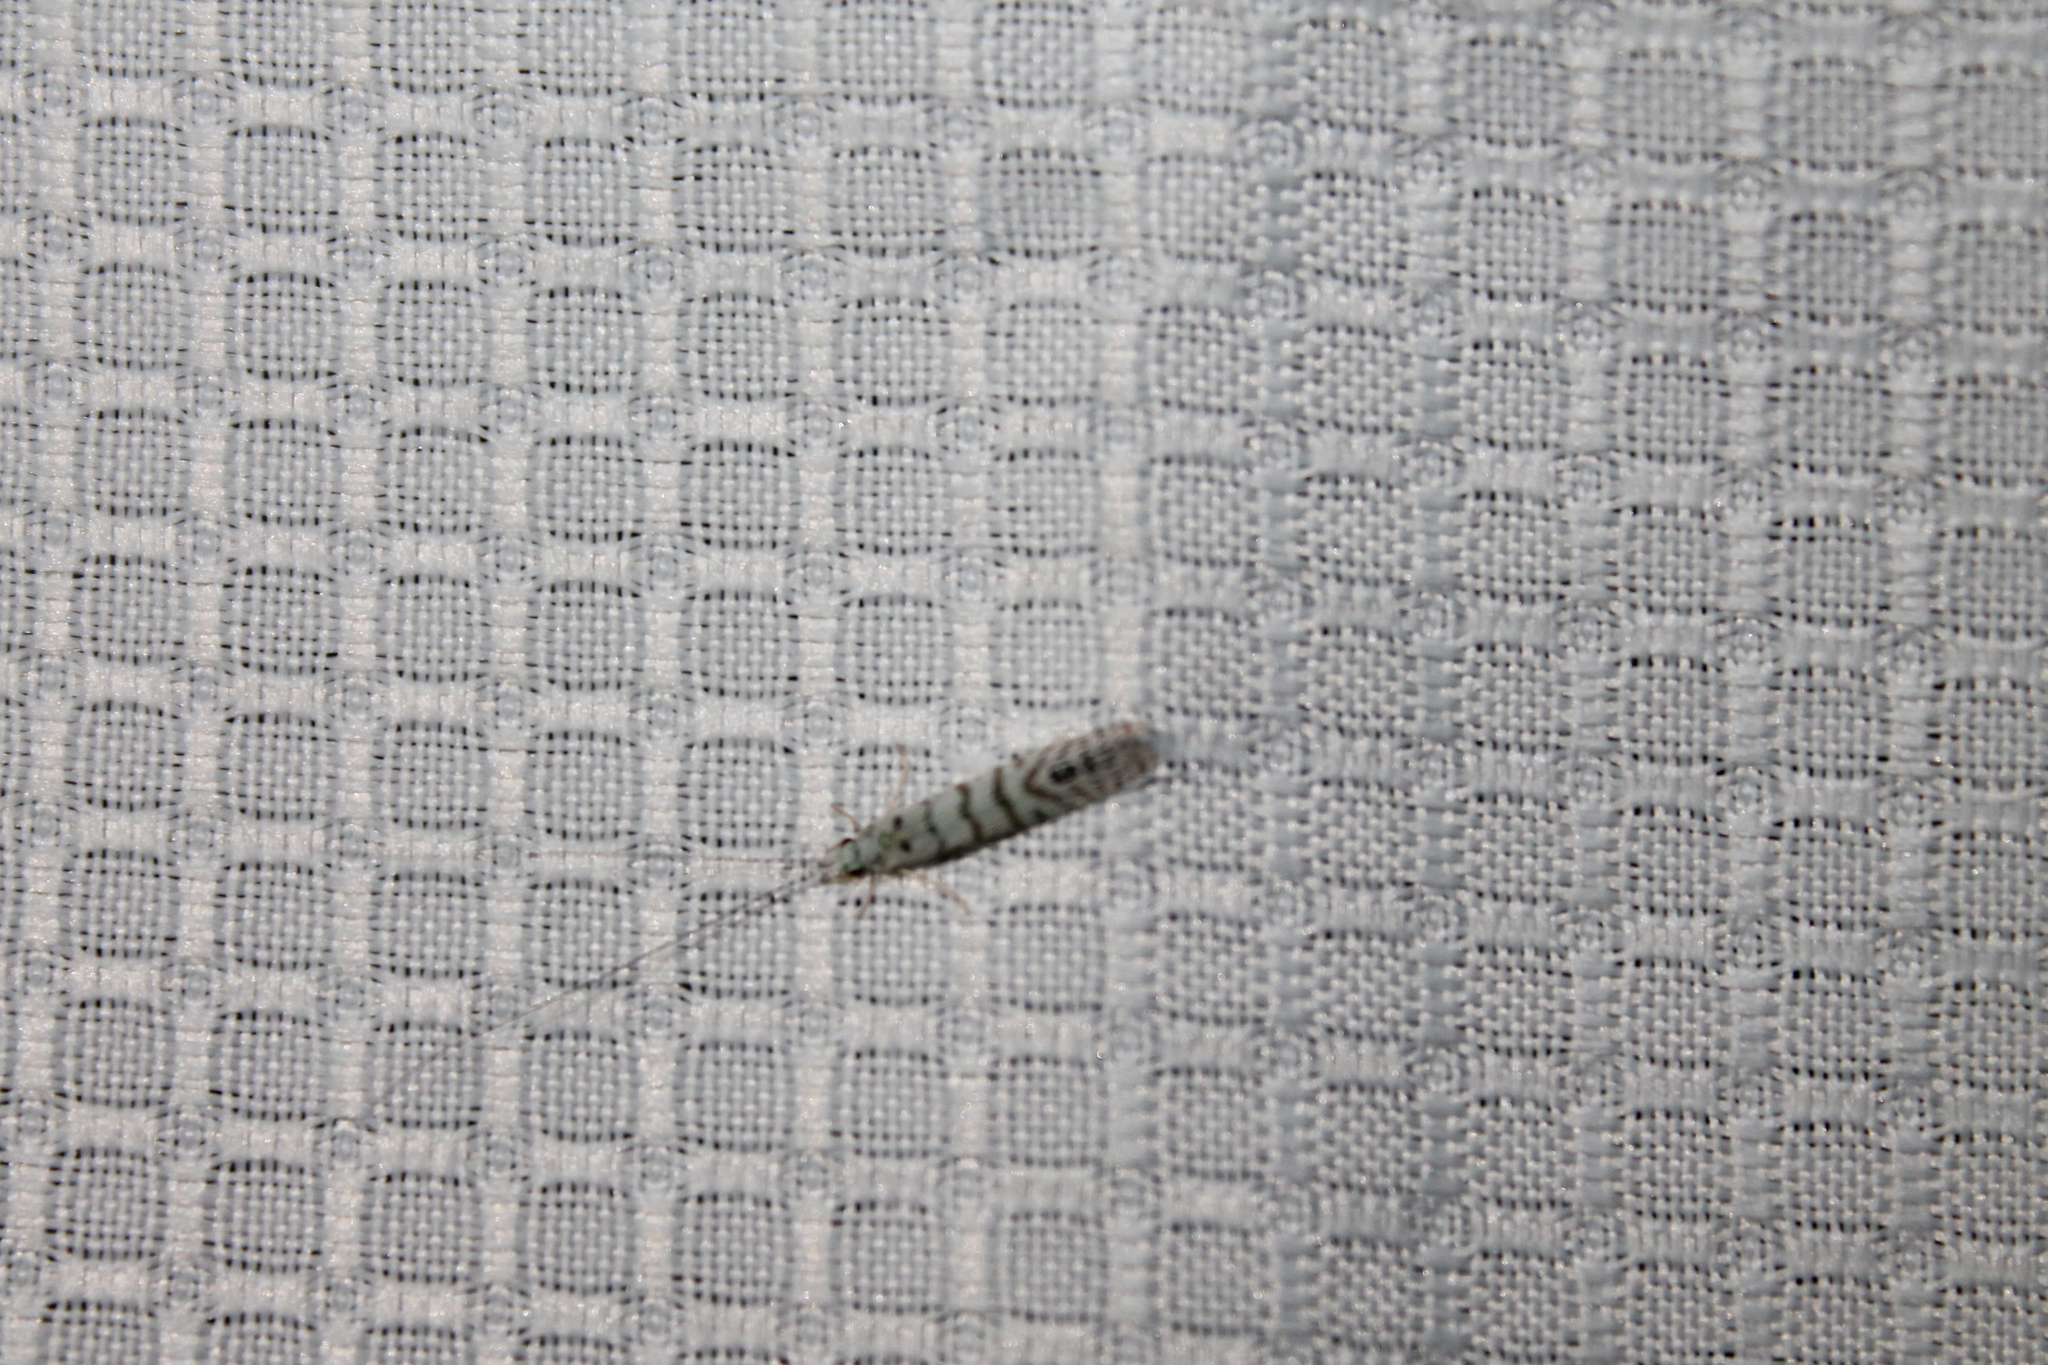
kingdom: Animalia
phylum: Arthropoda
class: Insecta
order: Trichoptera
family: Leptoceridae
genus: Nectopsyche
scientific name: Nectopsyche exquisita
